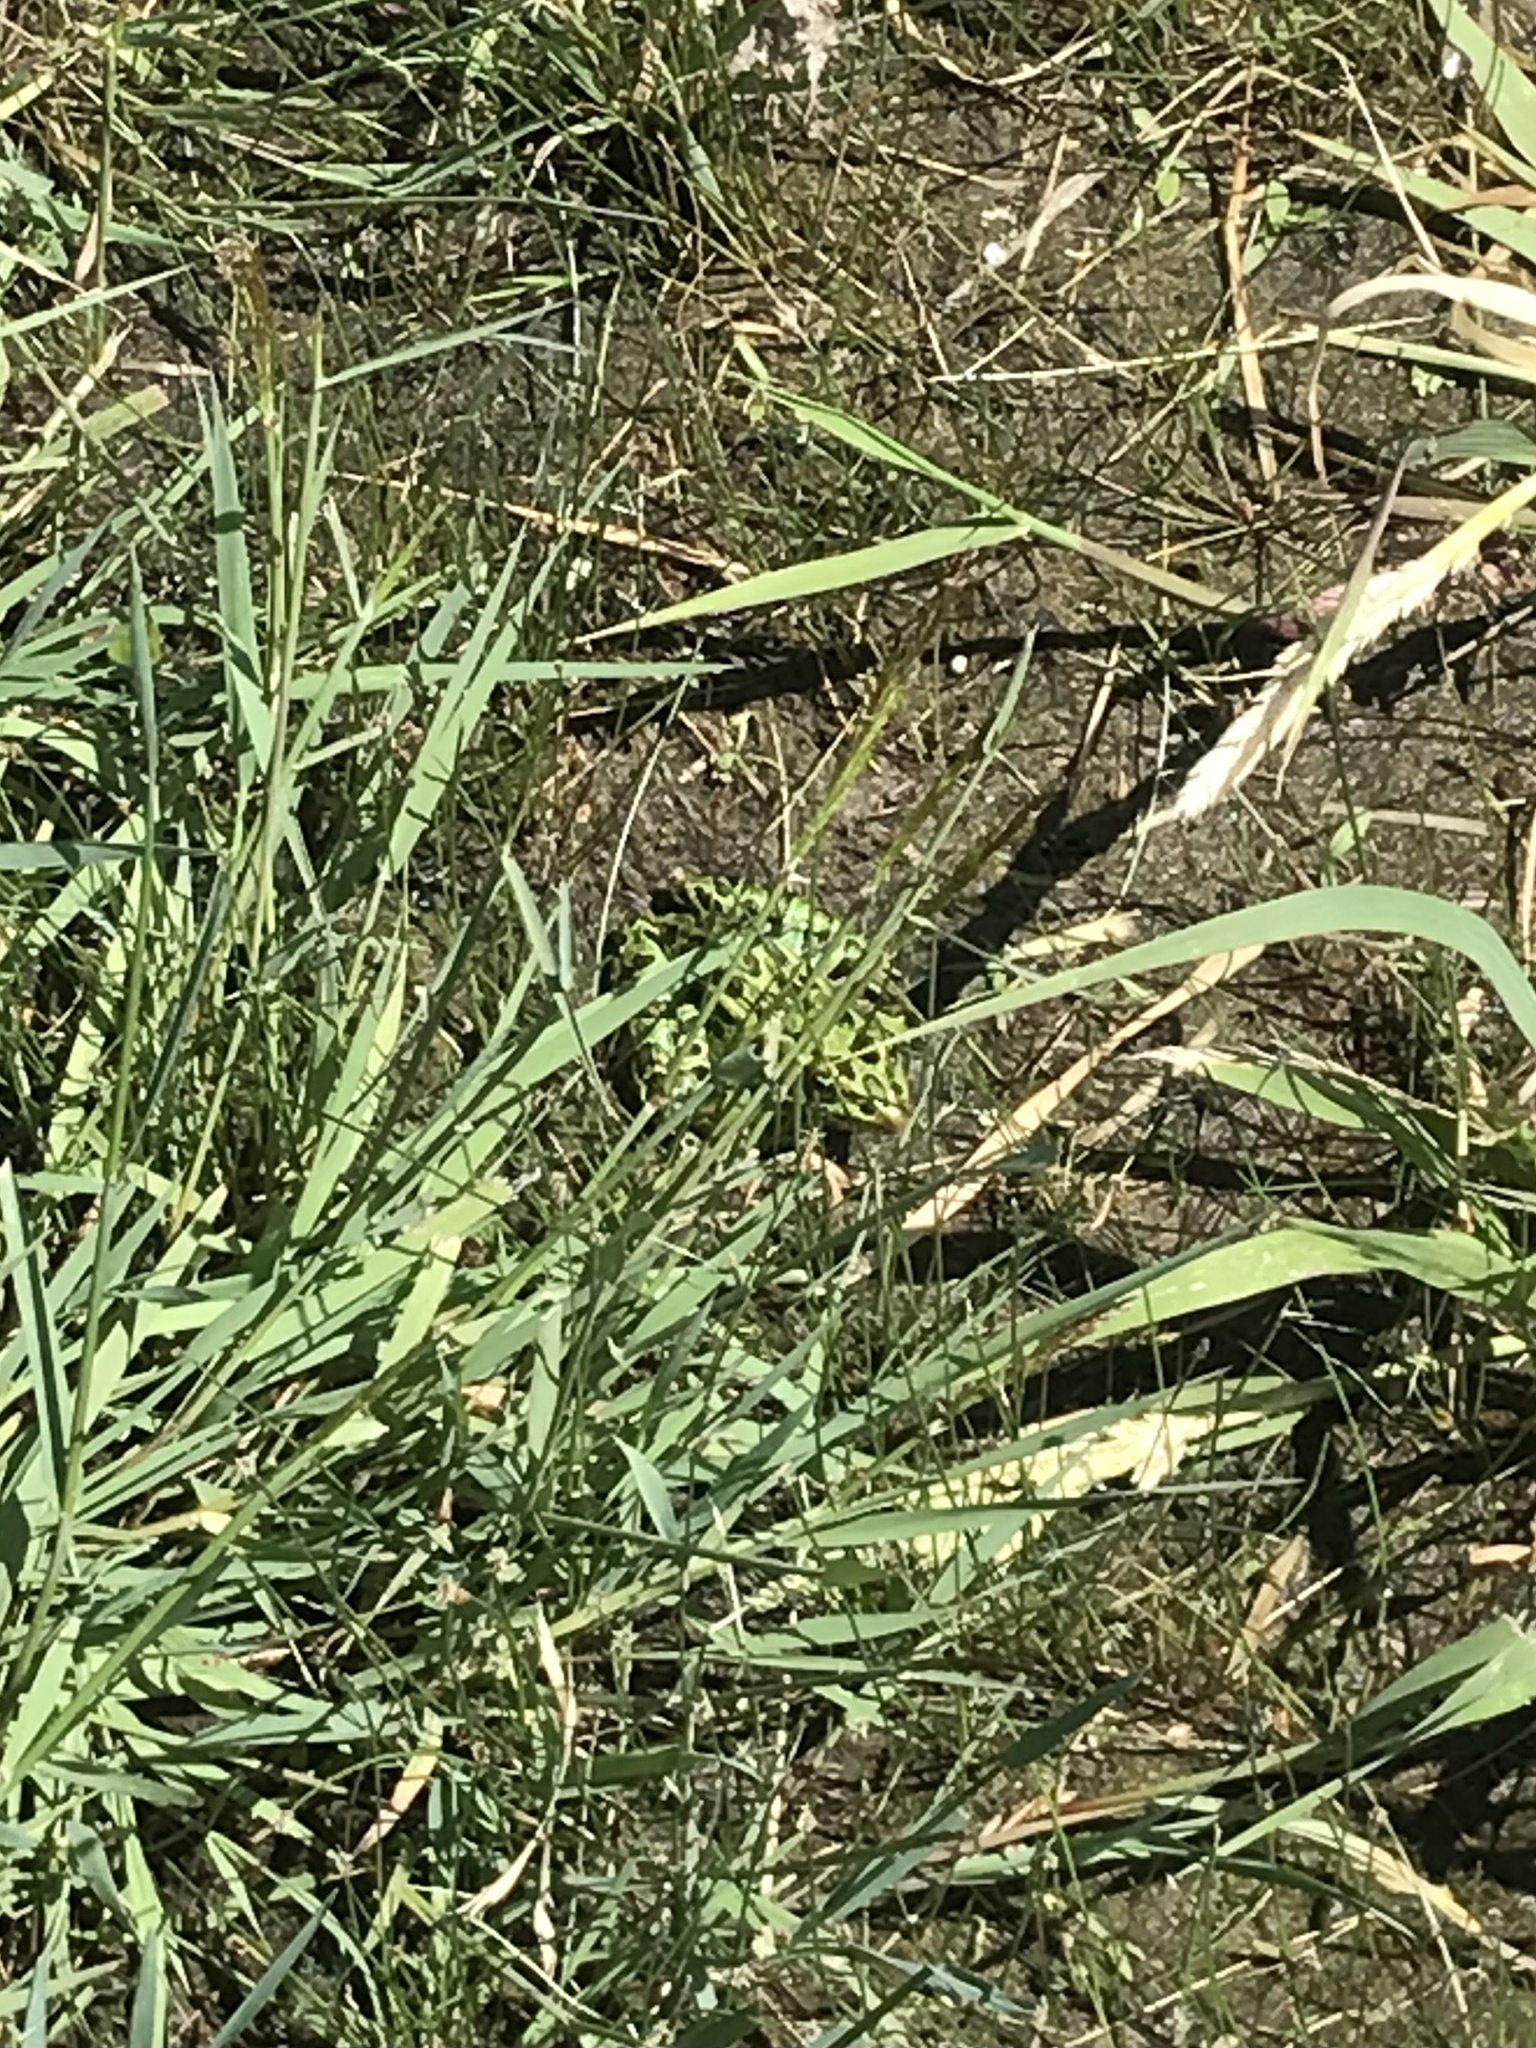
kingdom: Animalia
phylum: Chordata
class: Amphibia
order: Anura
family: Ranidae
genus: Lithobates
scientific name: Lithobates pipiens
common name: Northern leopard frog
